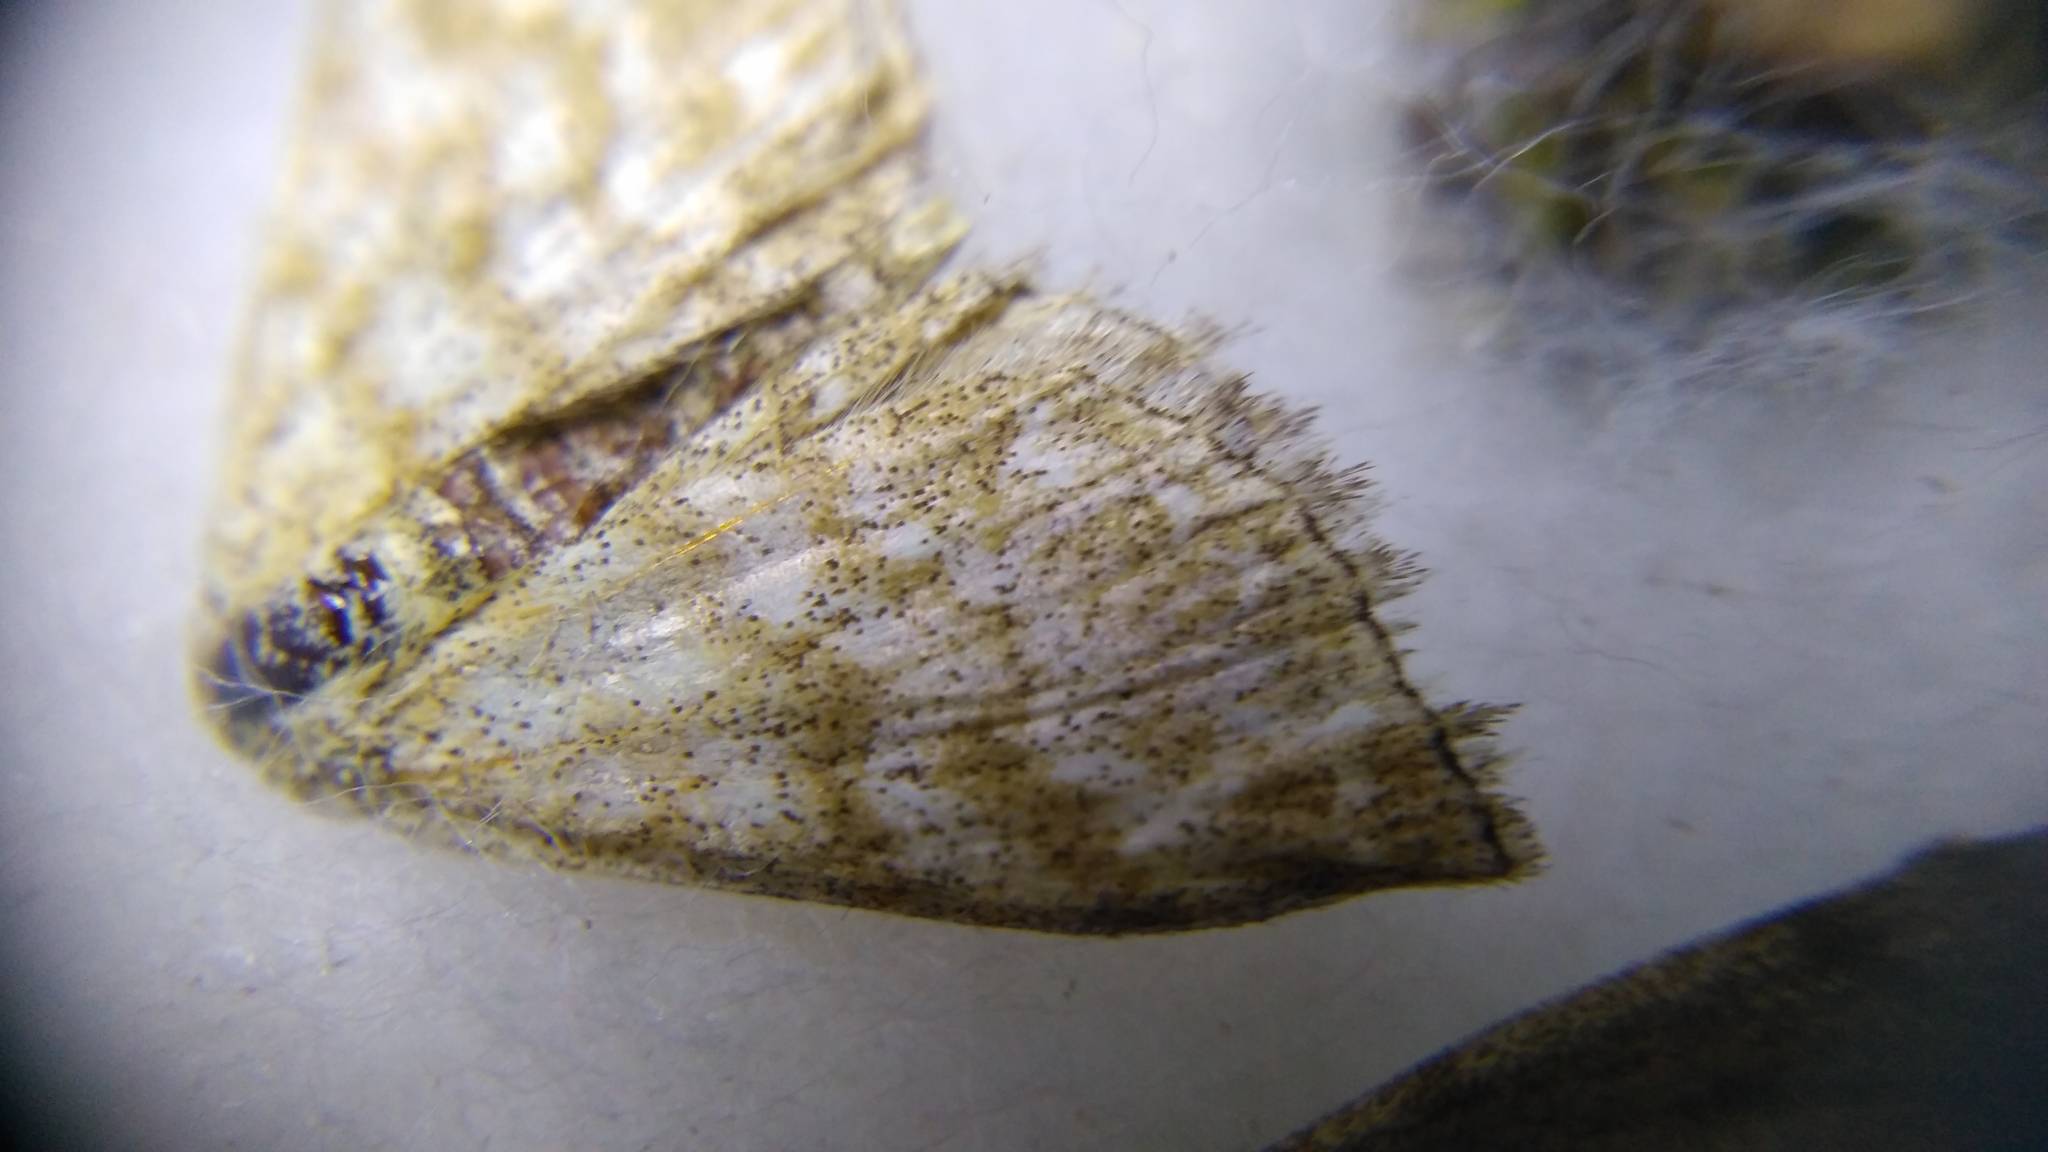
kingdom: Animalia
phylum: Arthropoda
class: Insecta
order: Lepidoptera
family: Geometridae
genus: Scopula
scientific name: Scopula immorata
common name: Lewes wave
